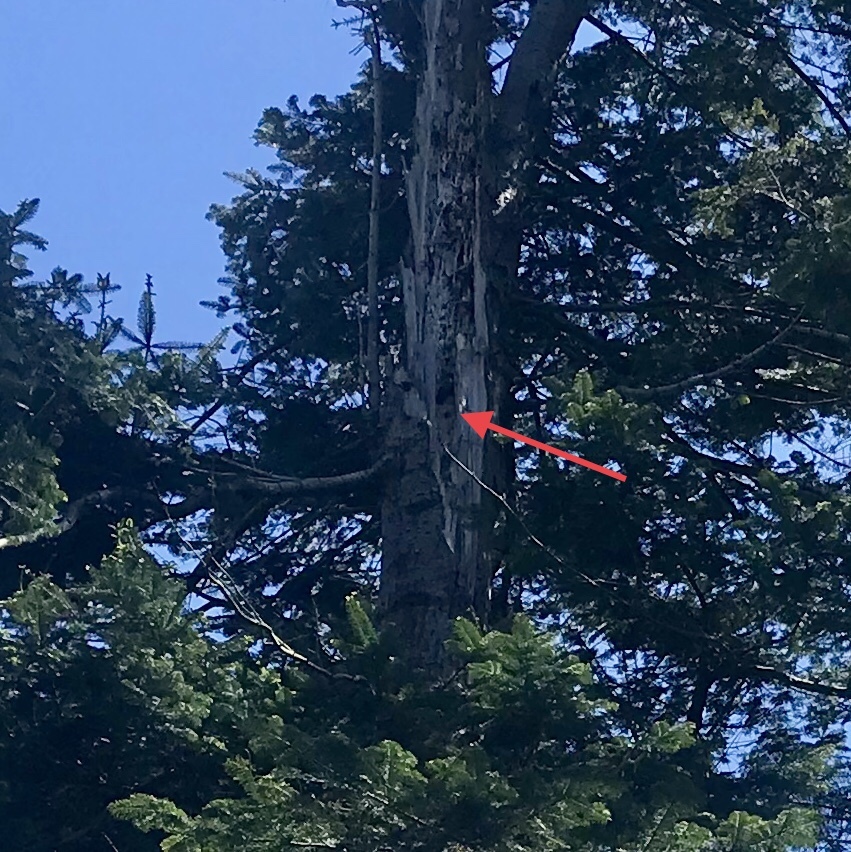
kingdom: Animalia
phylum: Chordata
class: Aves
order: Passeriformes
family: Sturnidae
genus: Sturnus
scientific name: Sturnus vulgaris
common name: Common starling
